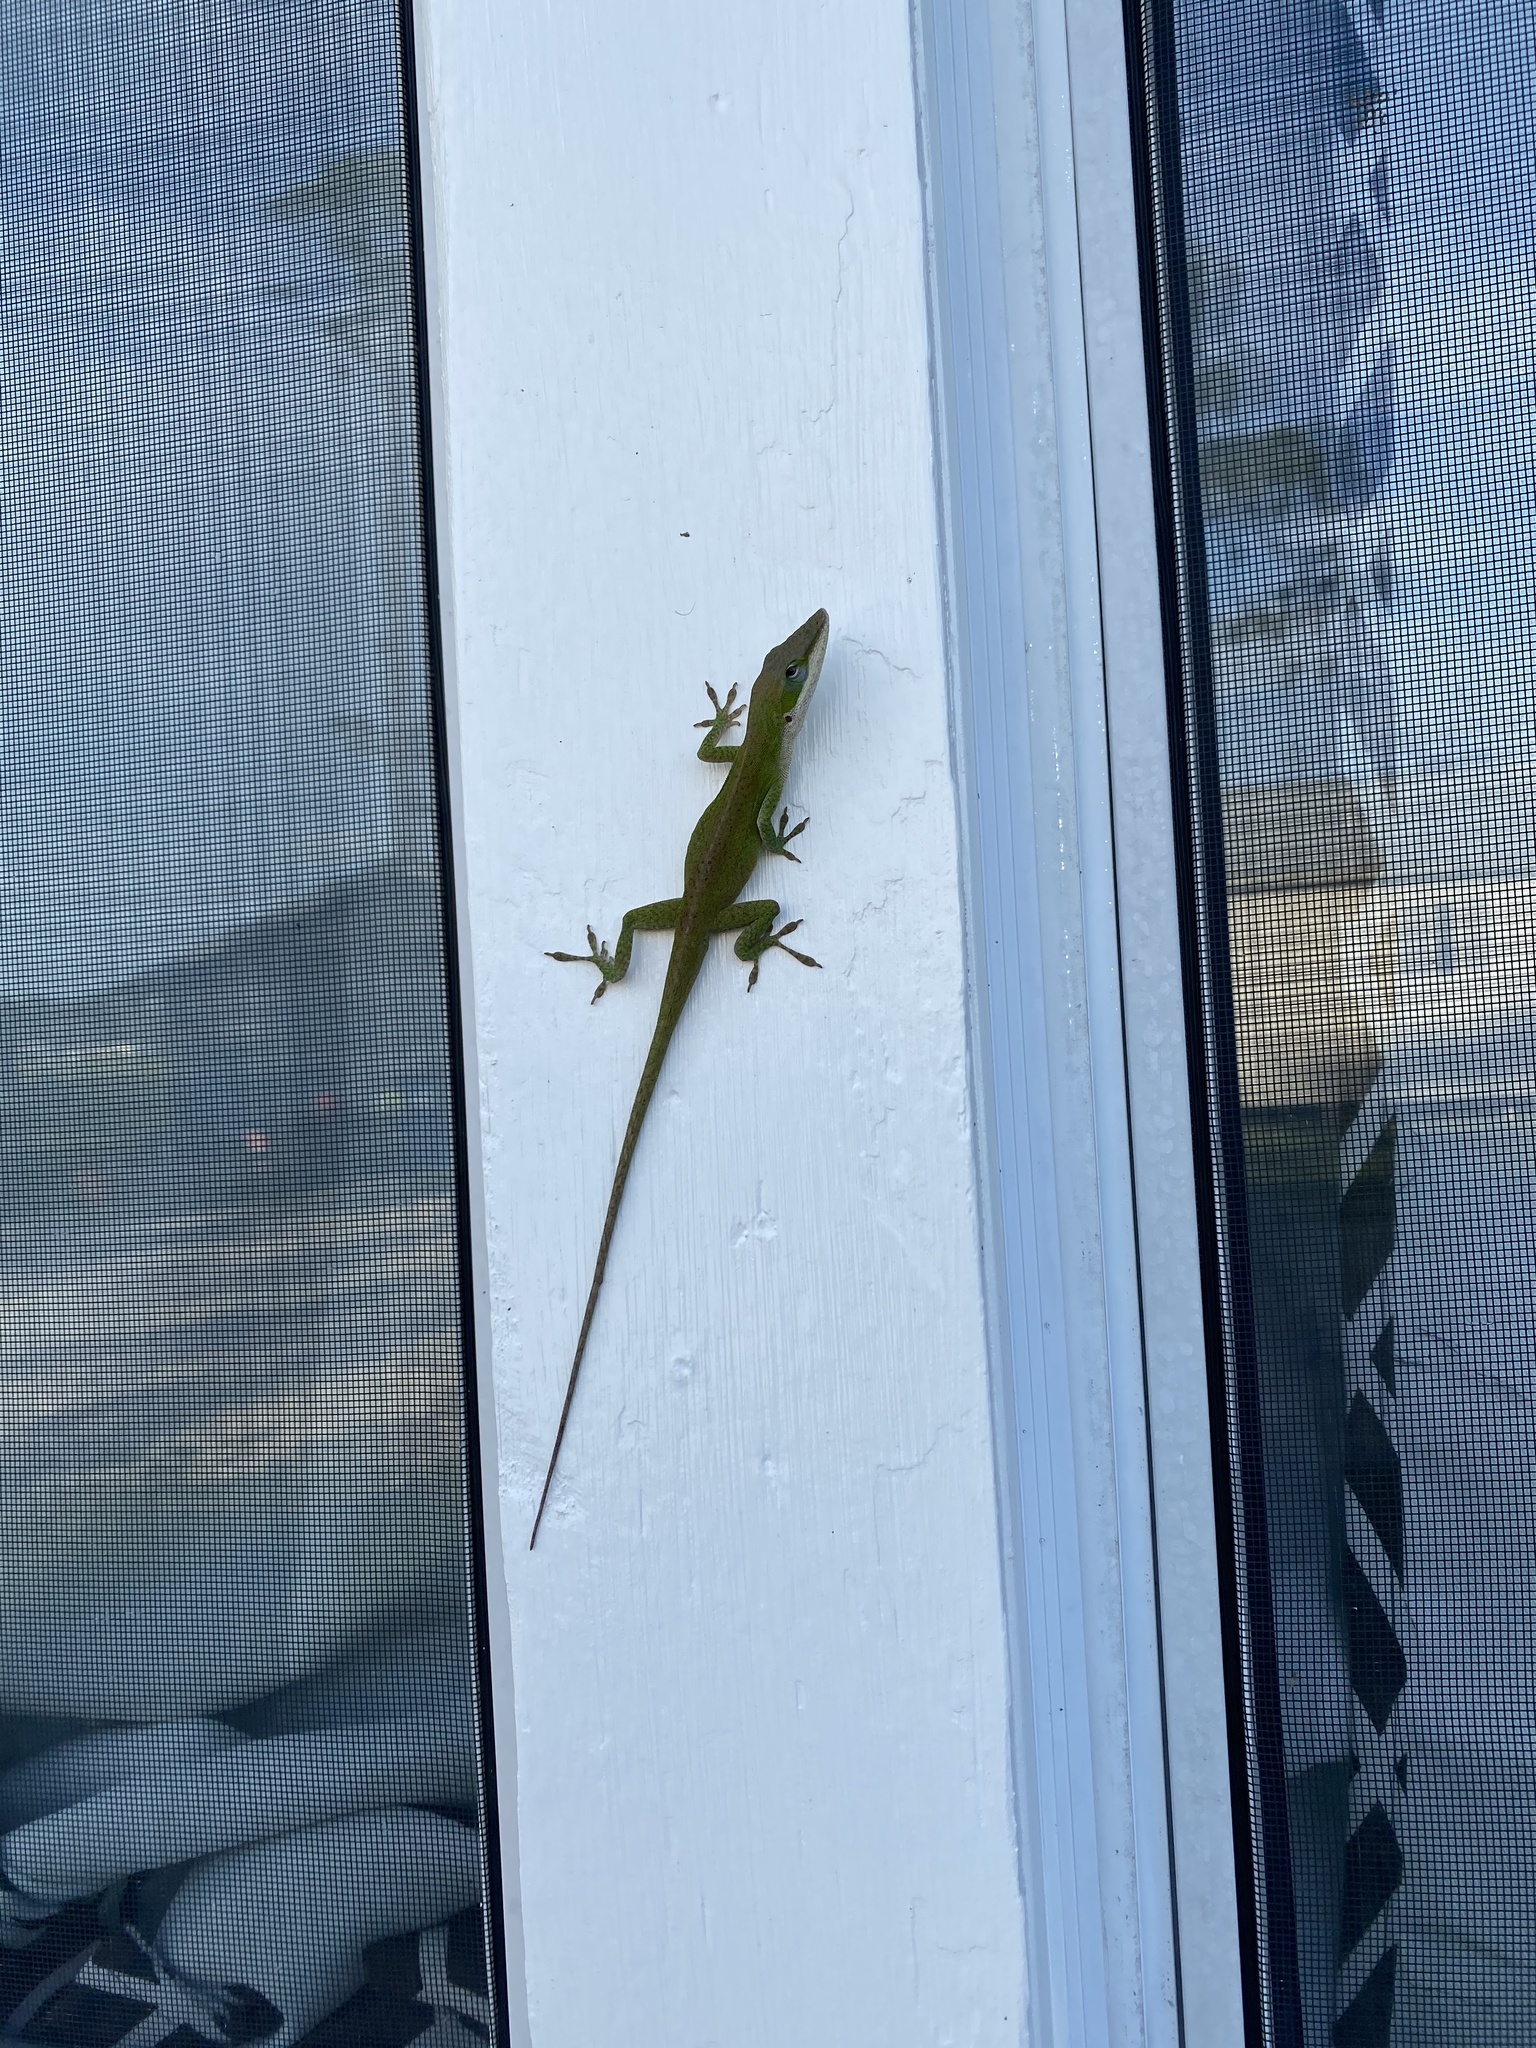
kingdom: Animalia
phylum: Chordata
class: Squamata
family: Dactyloidae
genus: Anolis
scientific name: Anolis carolinensis
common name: Green anole
